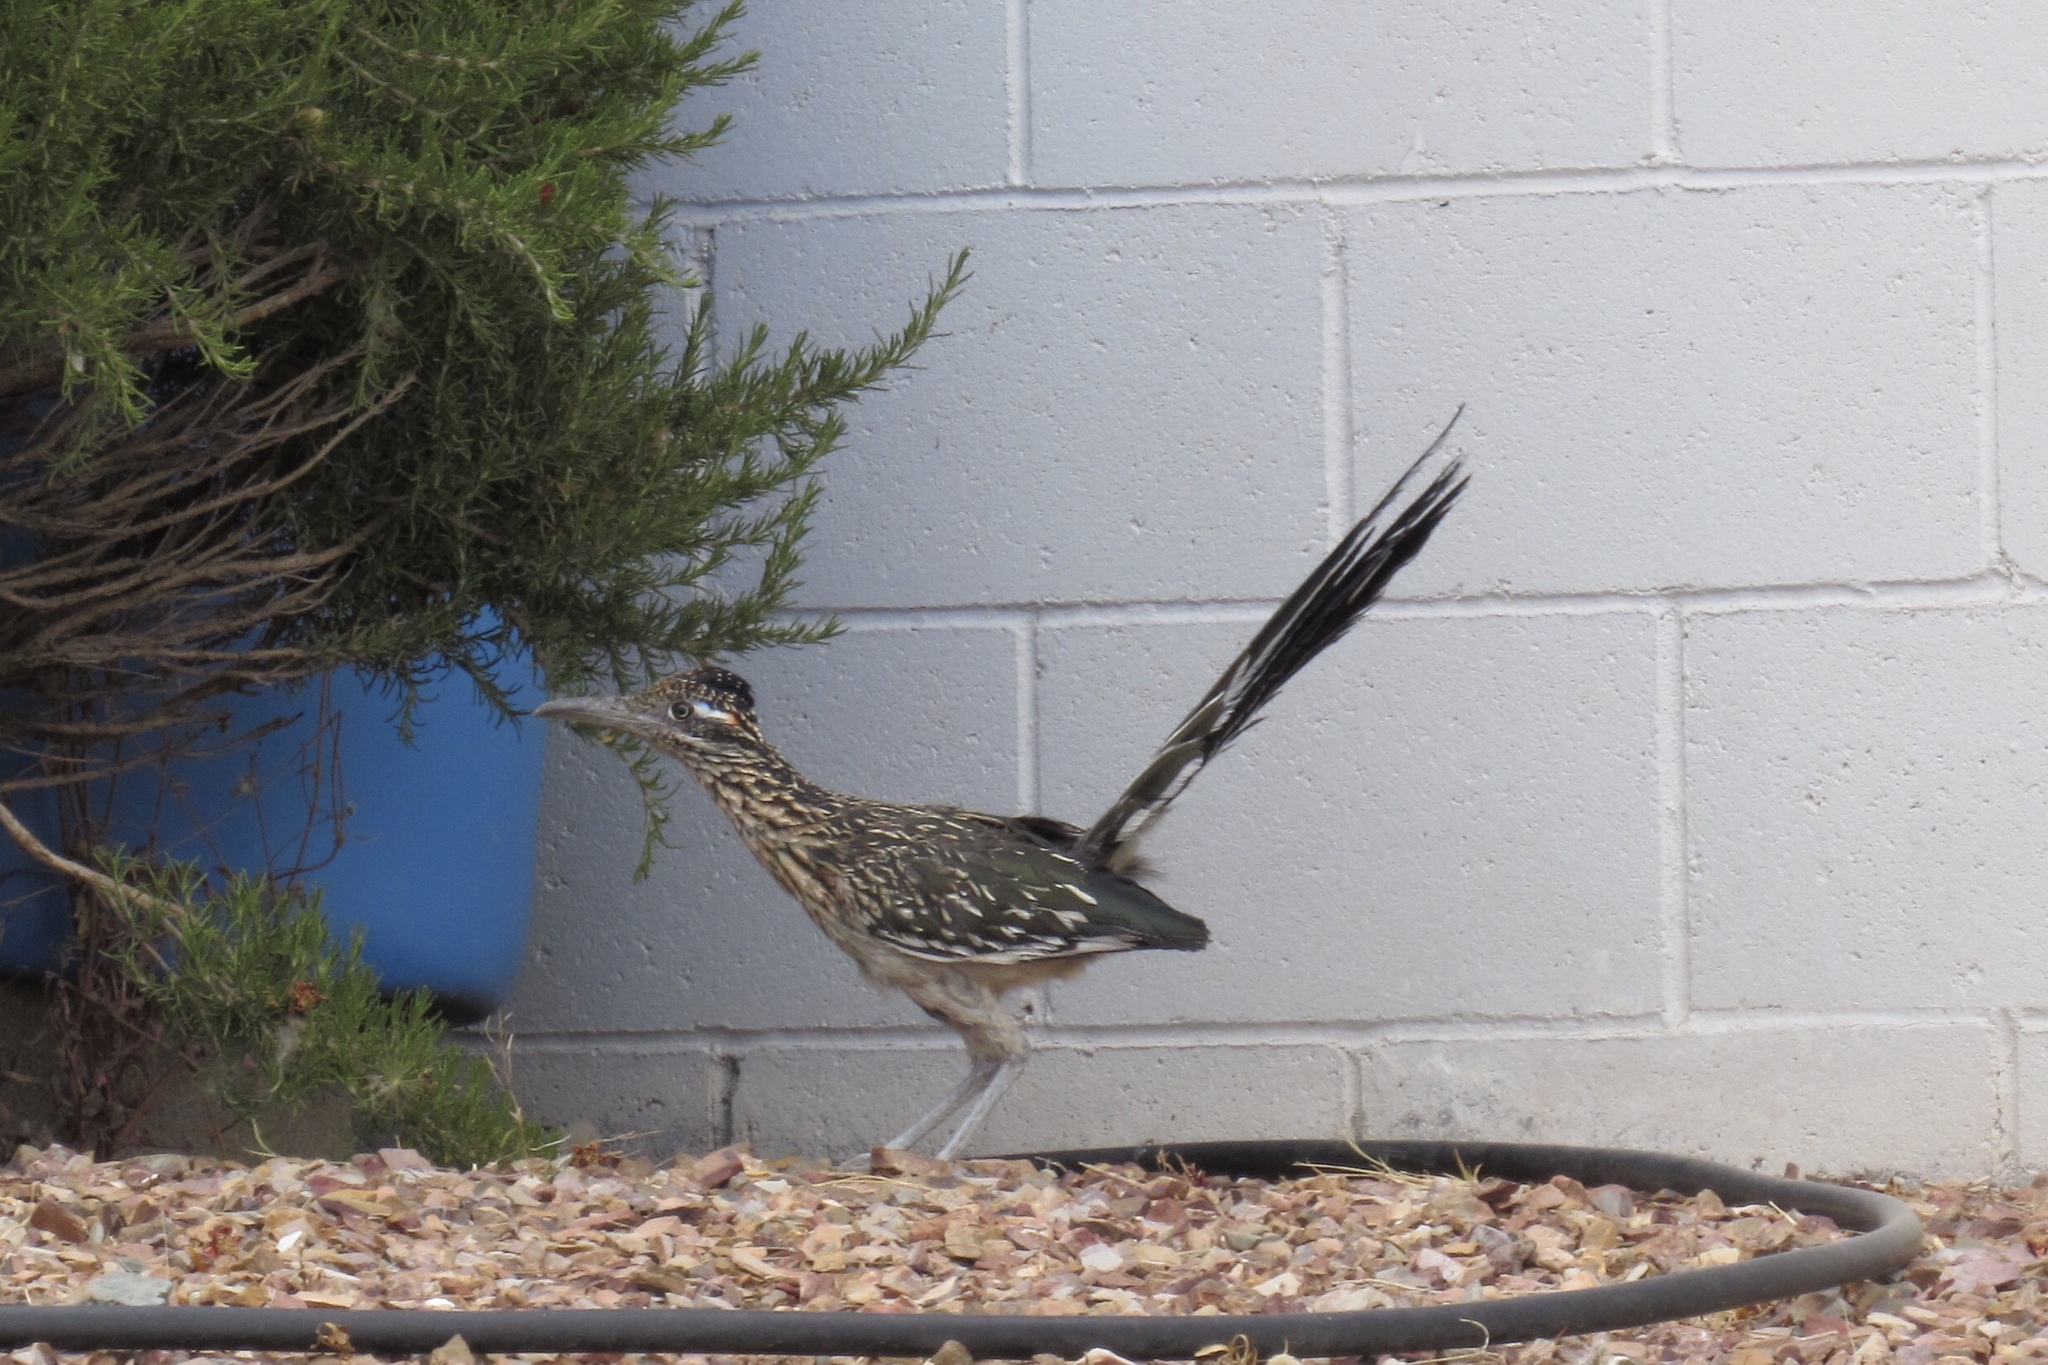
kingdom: Animalia
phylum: Chordata
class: Aves
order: Cuculiformes
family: Cuculidae
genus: Geococcyx
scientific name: Geococcyx californianus
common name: Greater roadrunner
